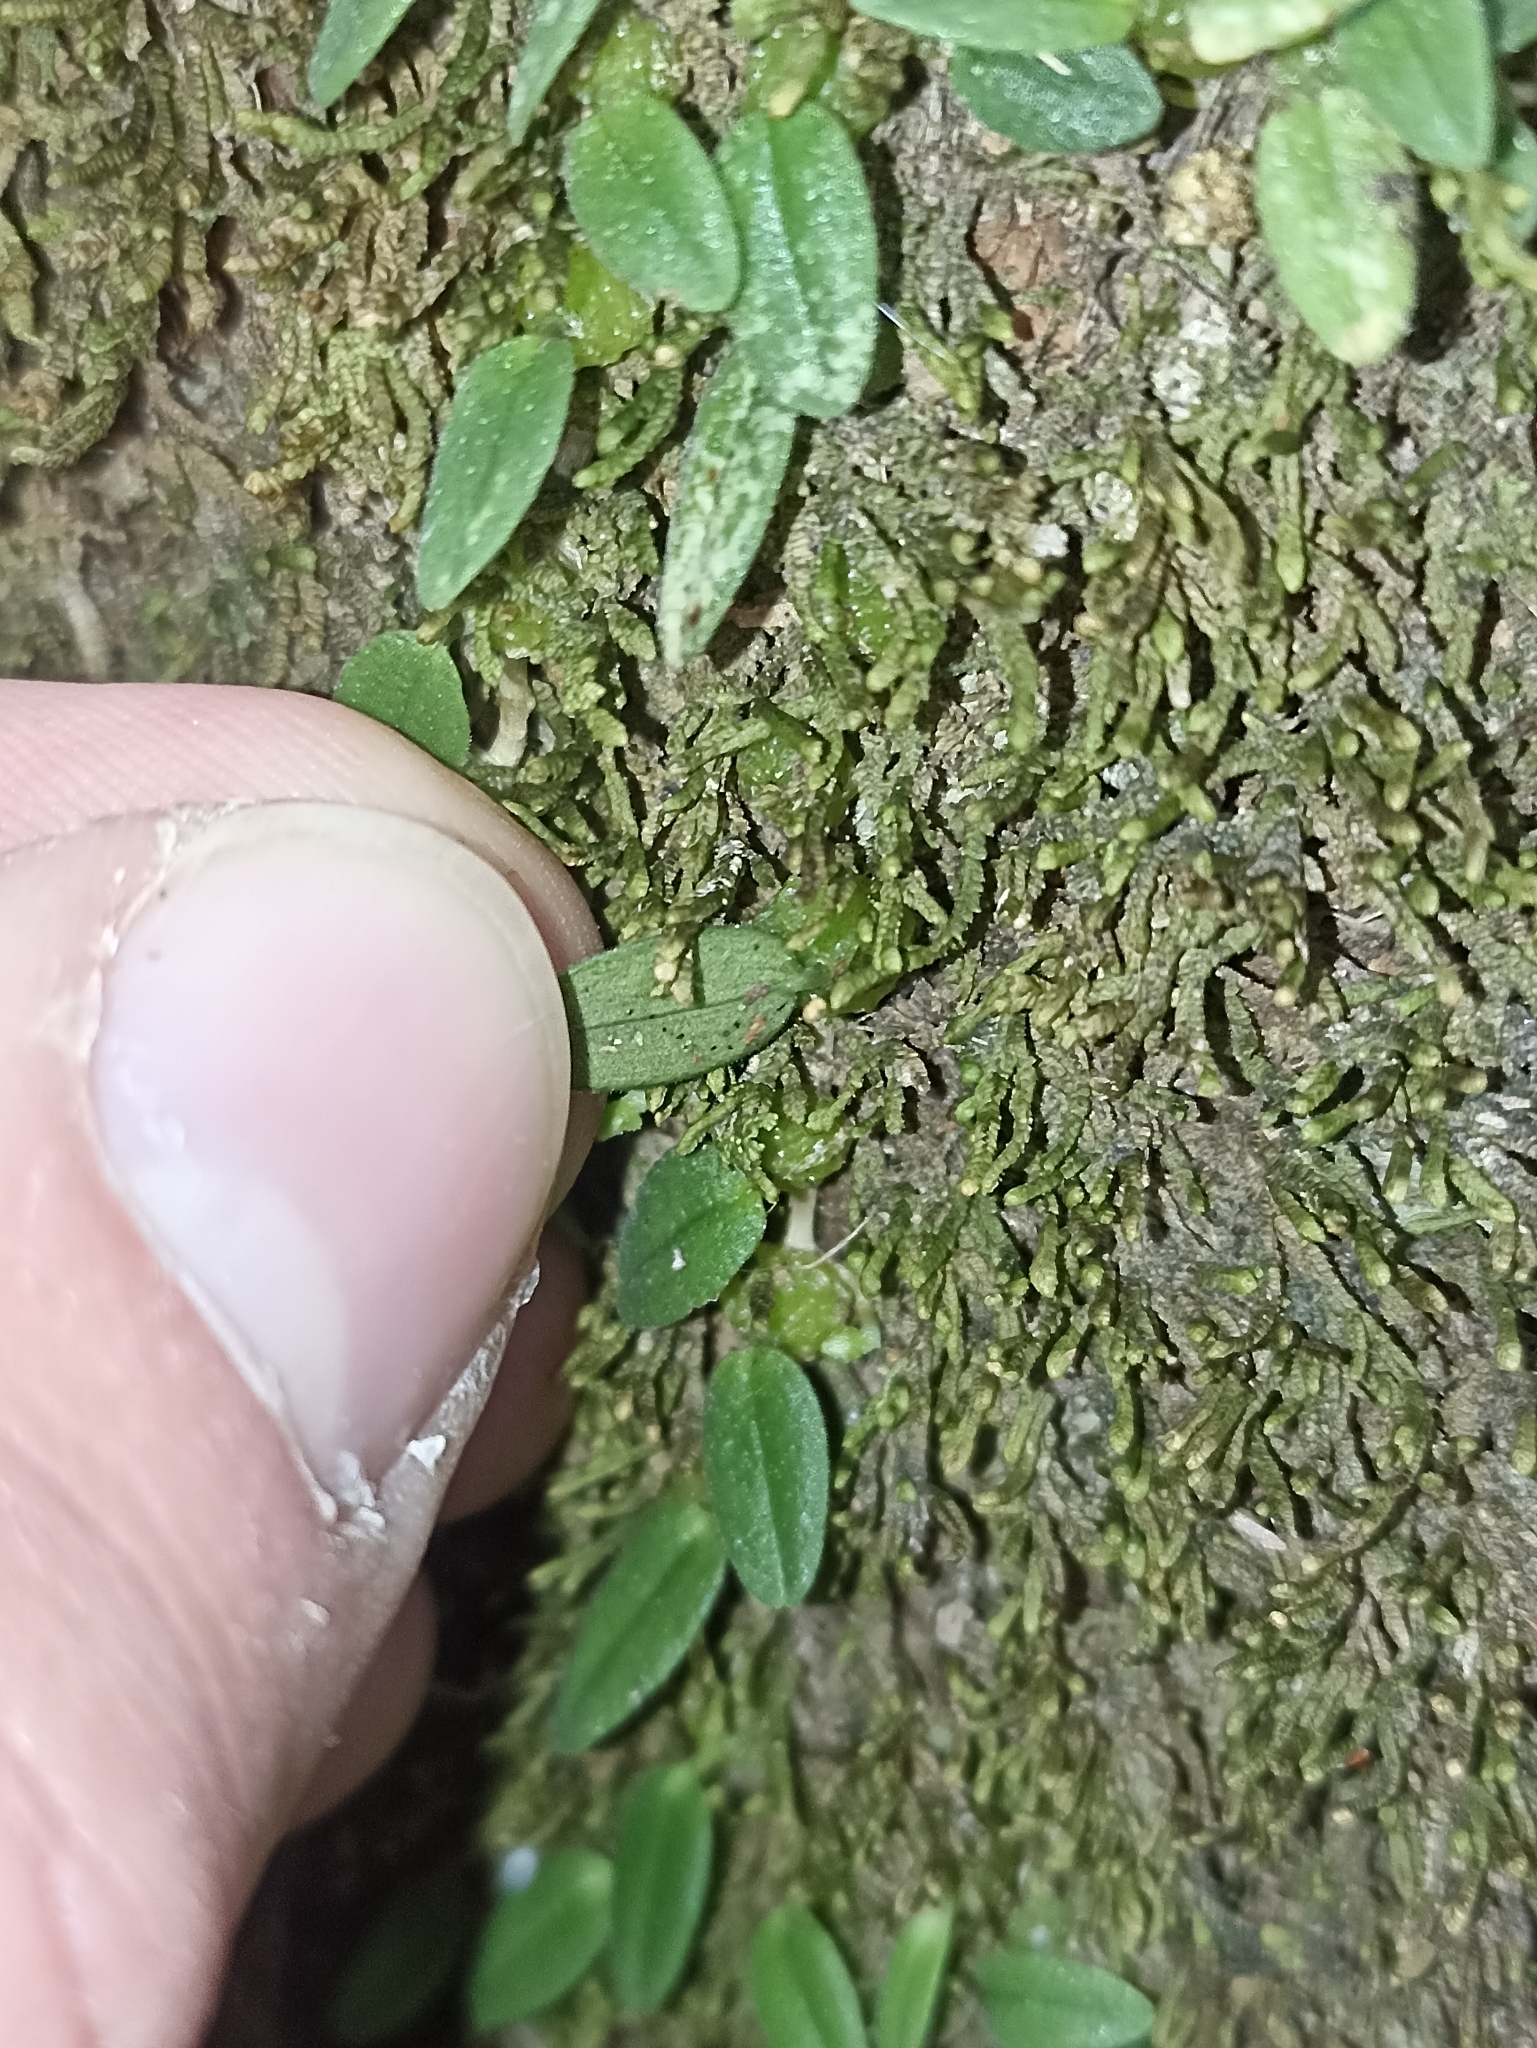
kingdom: Plantae
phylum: Tracheophyta
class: Liliopsida
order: Asparagales
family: Orchidaceae
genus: Bulbophyllum
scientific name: Bulbophyllum pygmaeum
